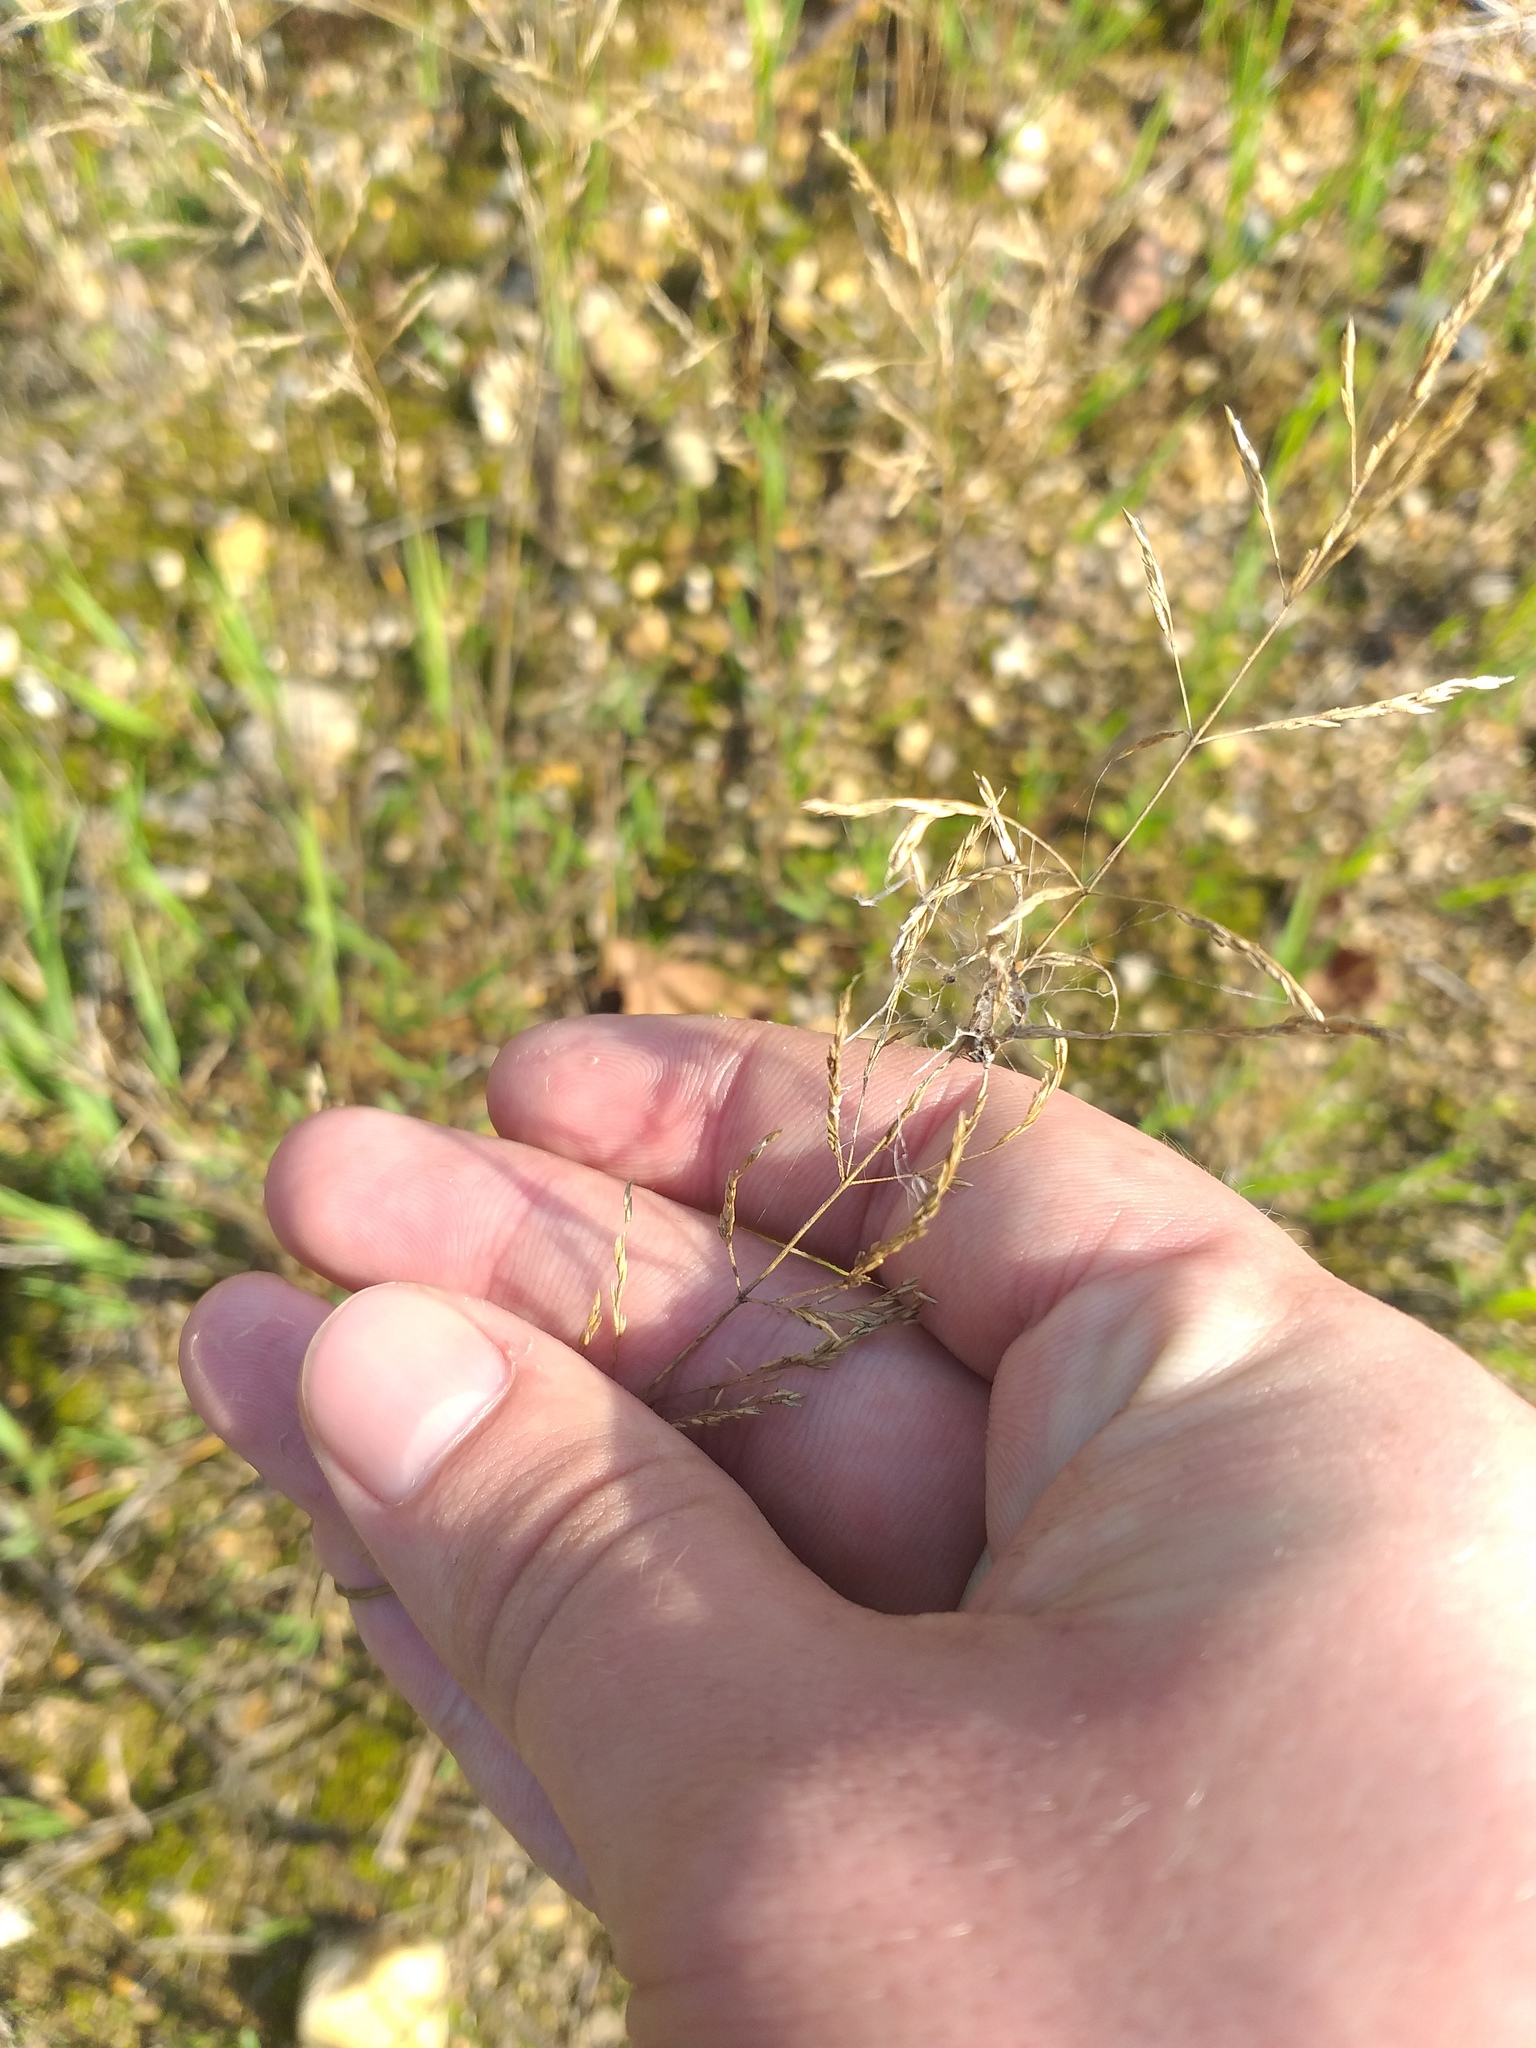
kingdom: Plantae
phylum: Tracheophyta
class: Liliopsida
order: Poales
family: Poaceae
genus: Agrostis
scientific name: Agrostis capillaris
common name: Colonial bentgrass
